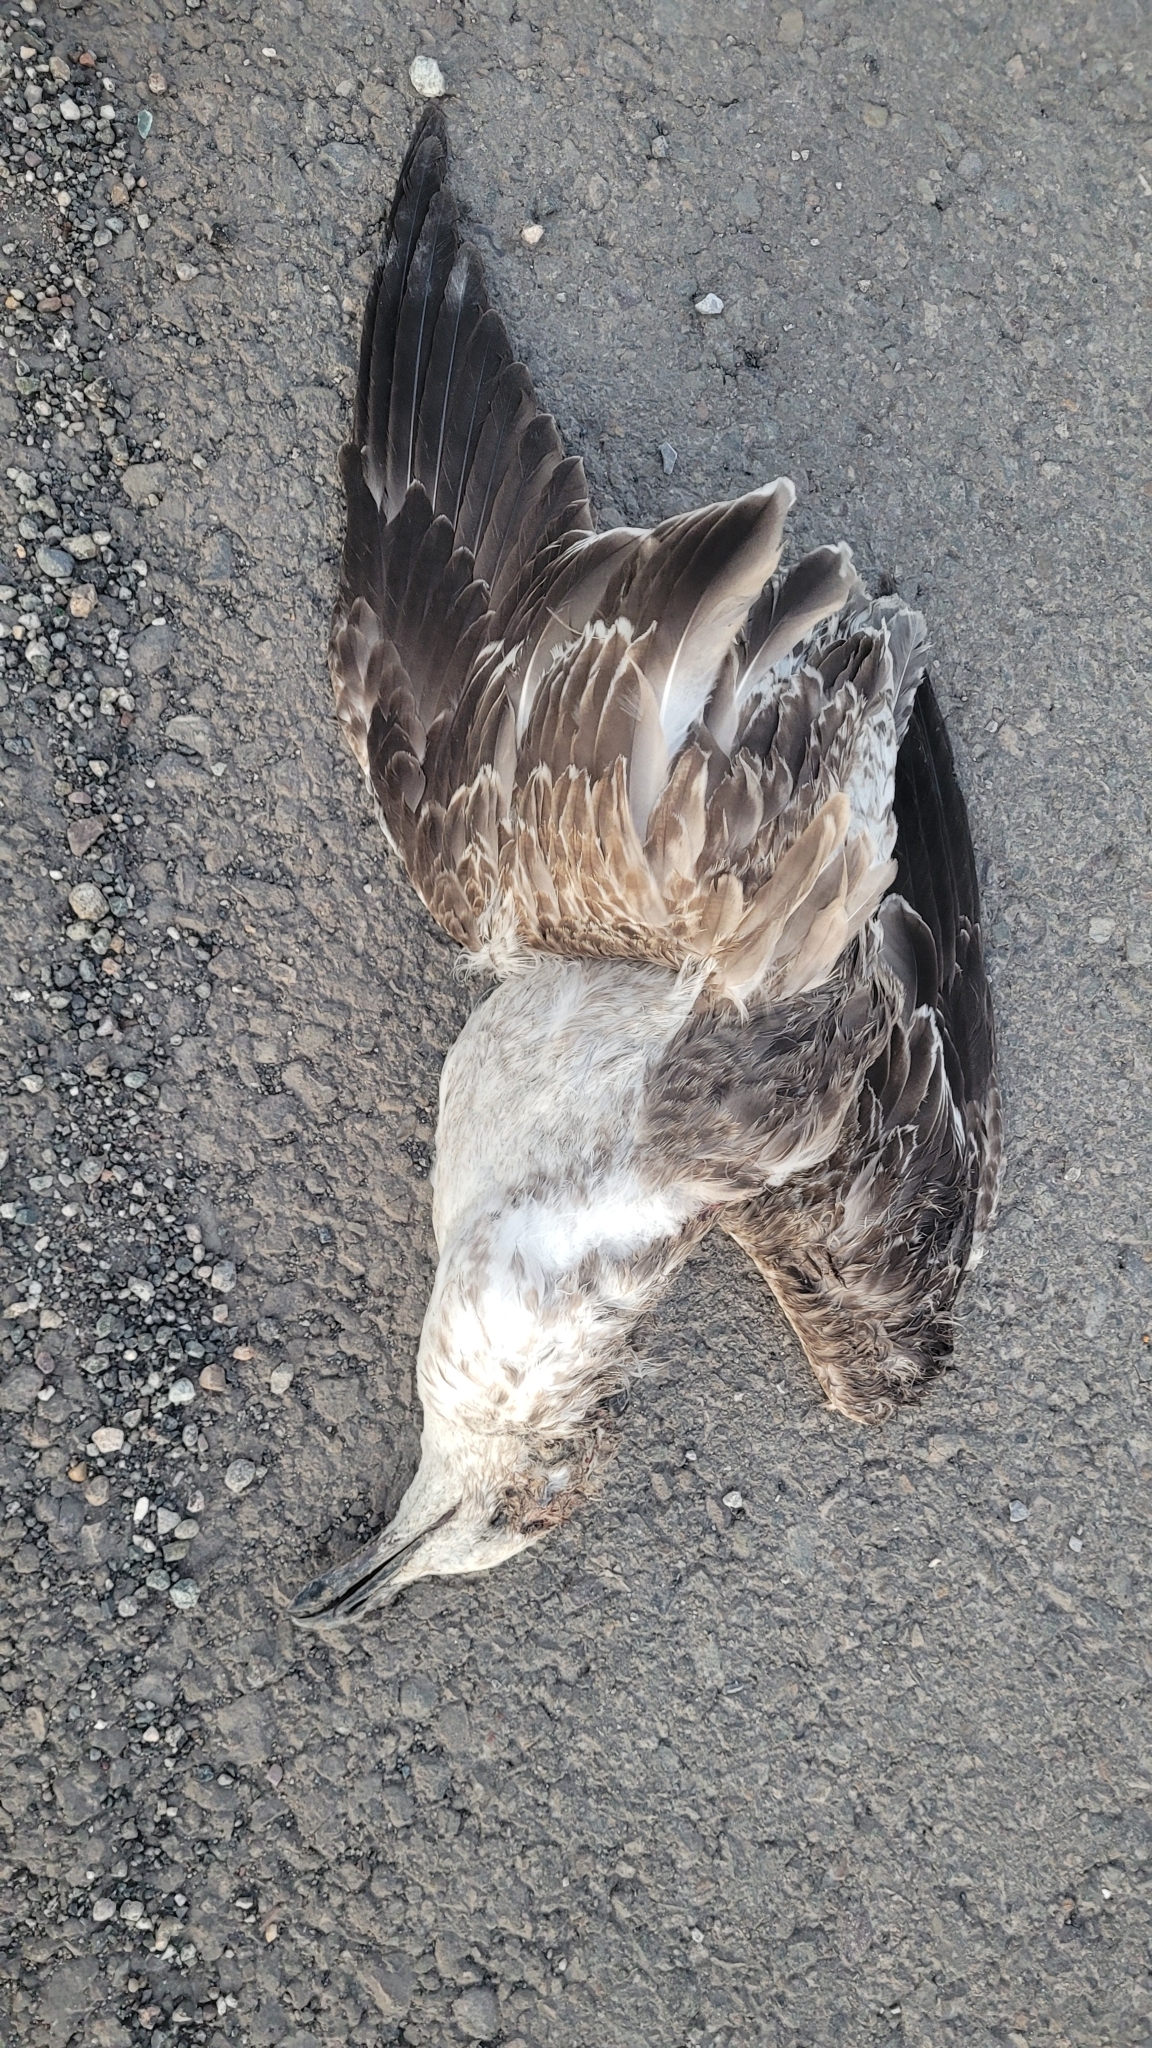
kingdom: Animalia
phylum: Chordata
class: Aves
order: Charadriiformes
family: Laridae
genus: Larus
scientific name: Larus dominicanus
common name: Kelp gull
